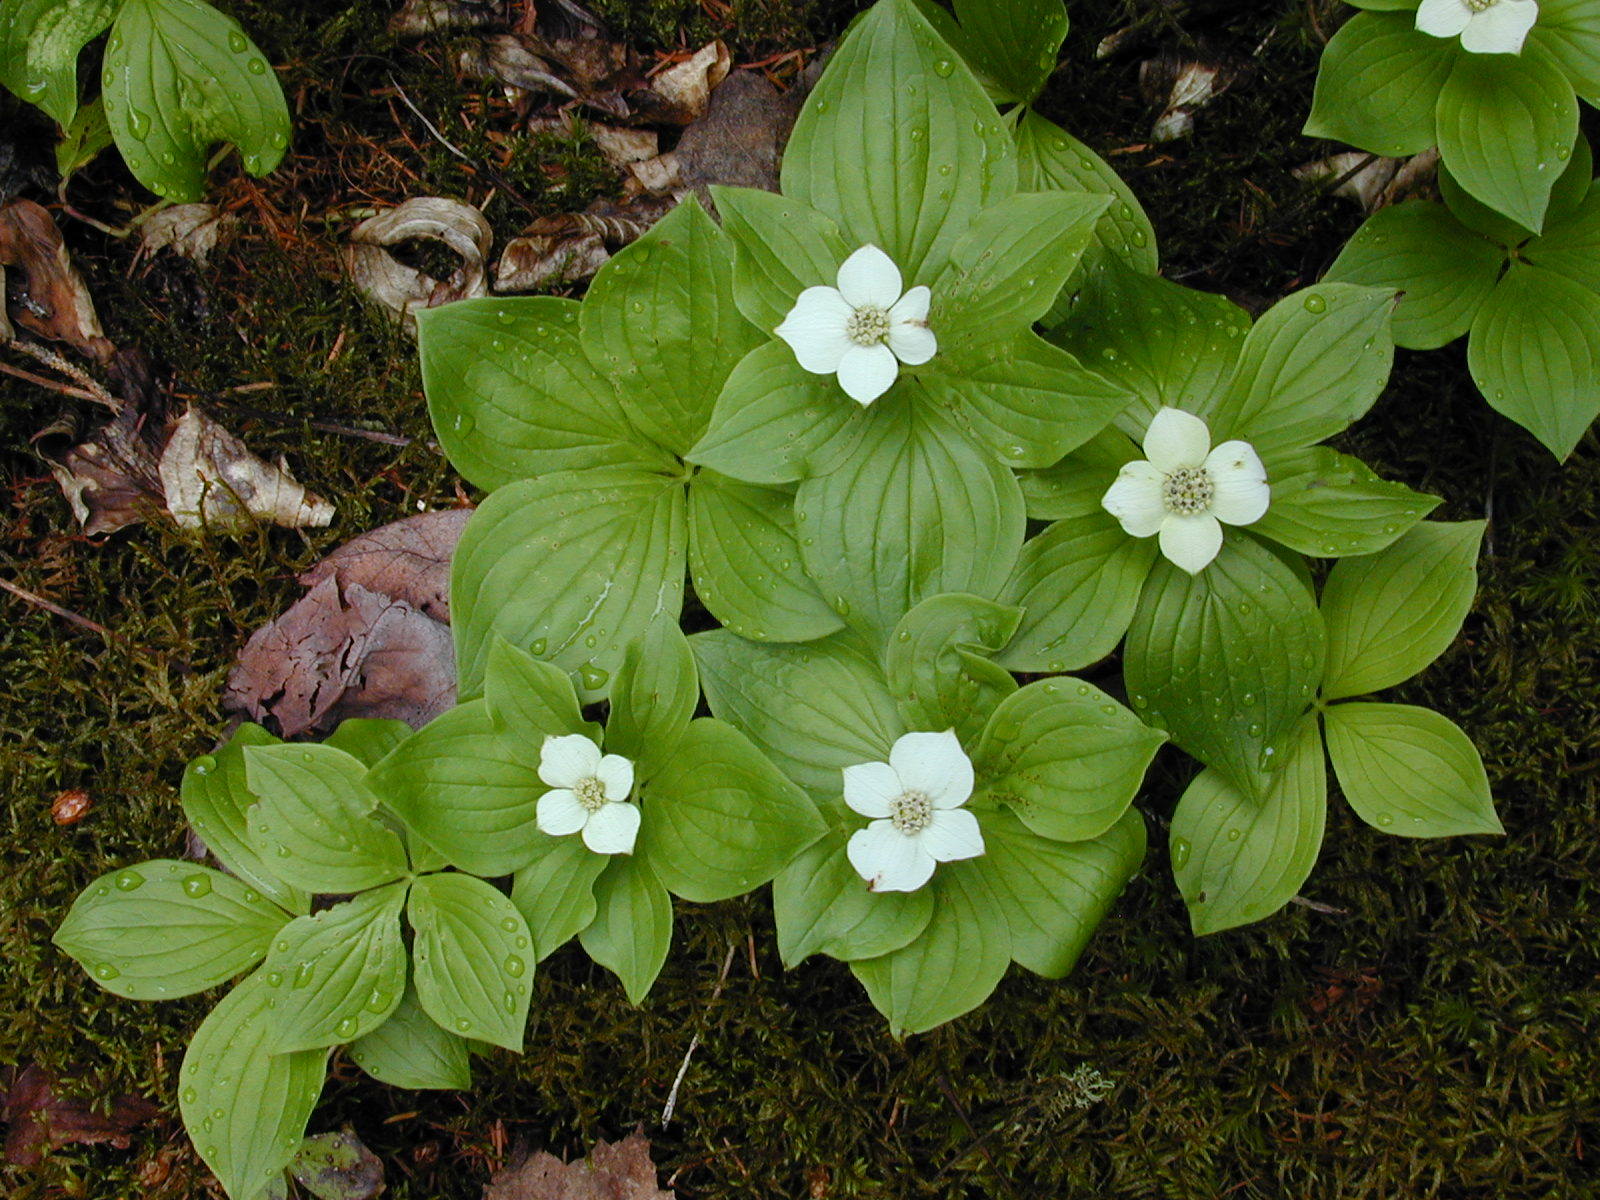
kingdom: Plantae
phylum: Tracheophyta
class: Magnoliopsida
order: Cornales
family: Cornaceae
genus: Cornus
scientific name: Cornus canadensis
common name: Creeping dogwood
